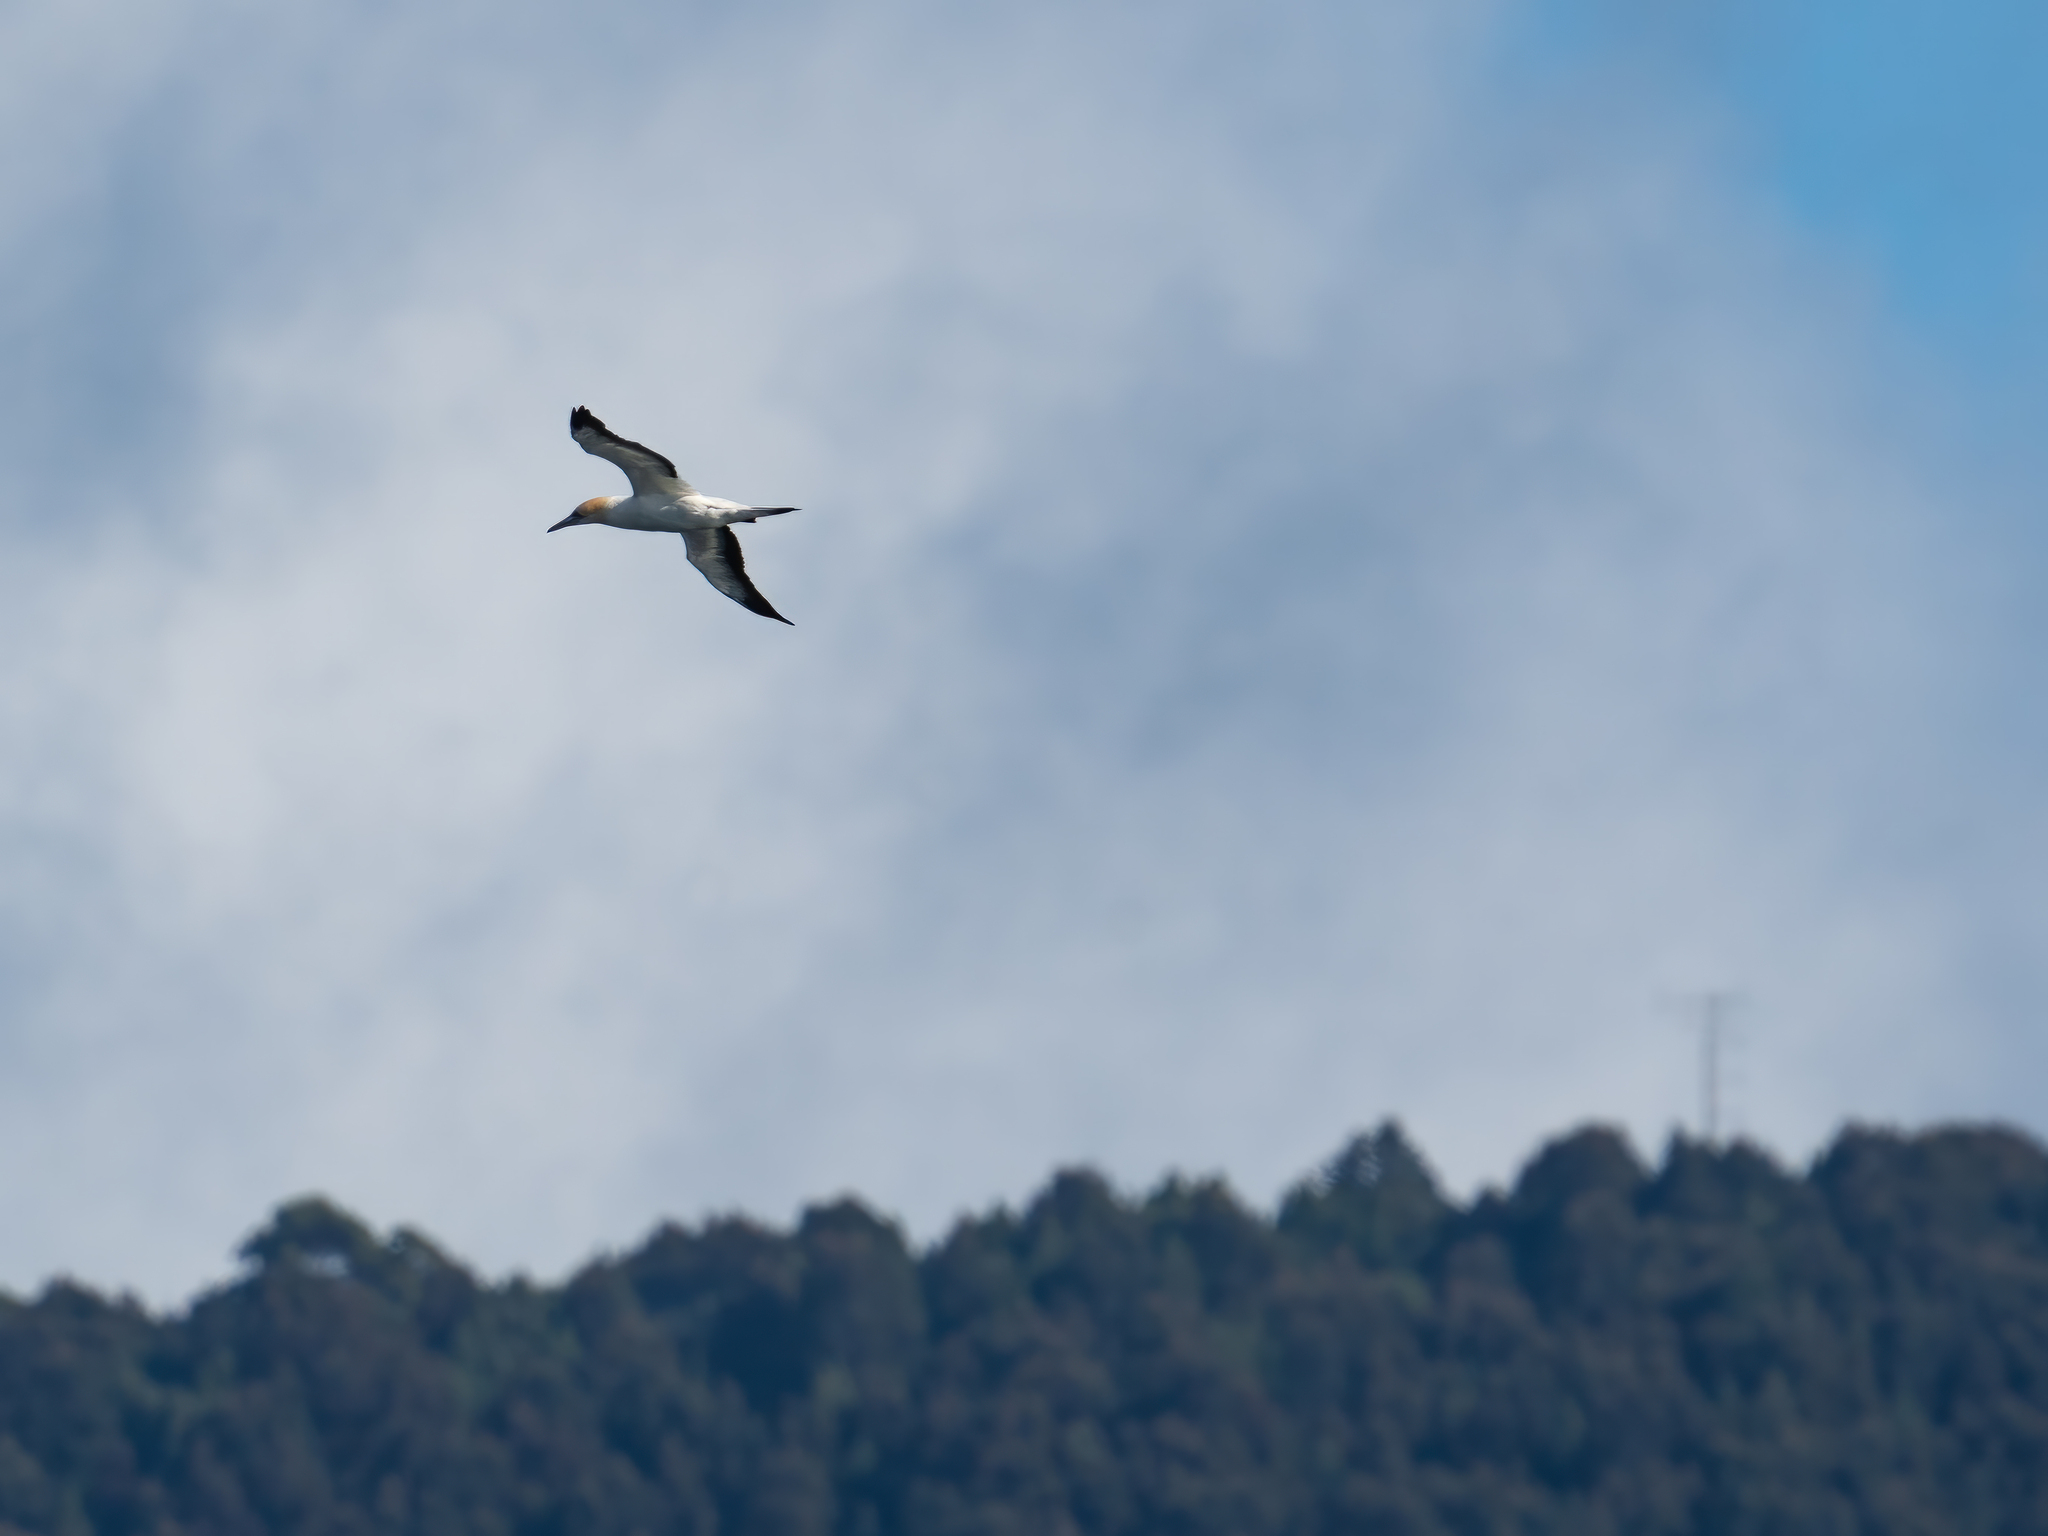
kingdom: Animalia
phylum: Chordata
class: Aves
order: Suliformes
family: Sulidae
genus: Morus
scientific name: Morus serrator
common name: Australasian gannet
